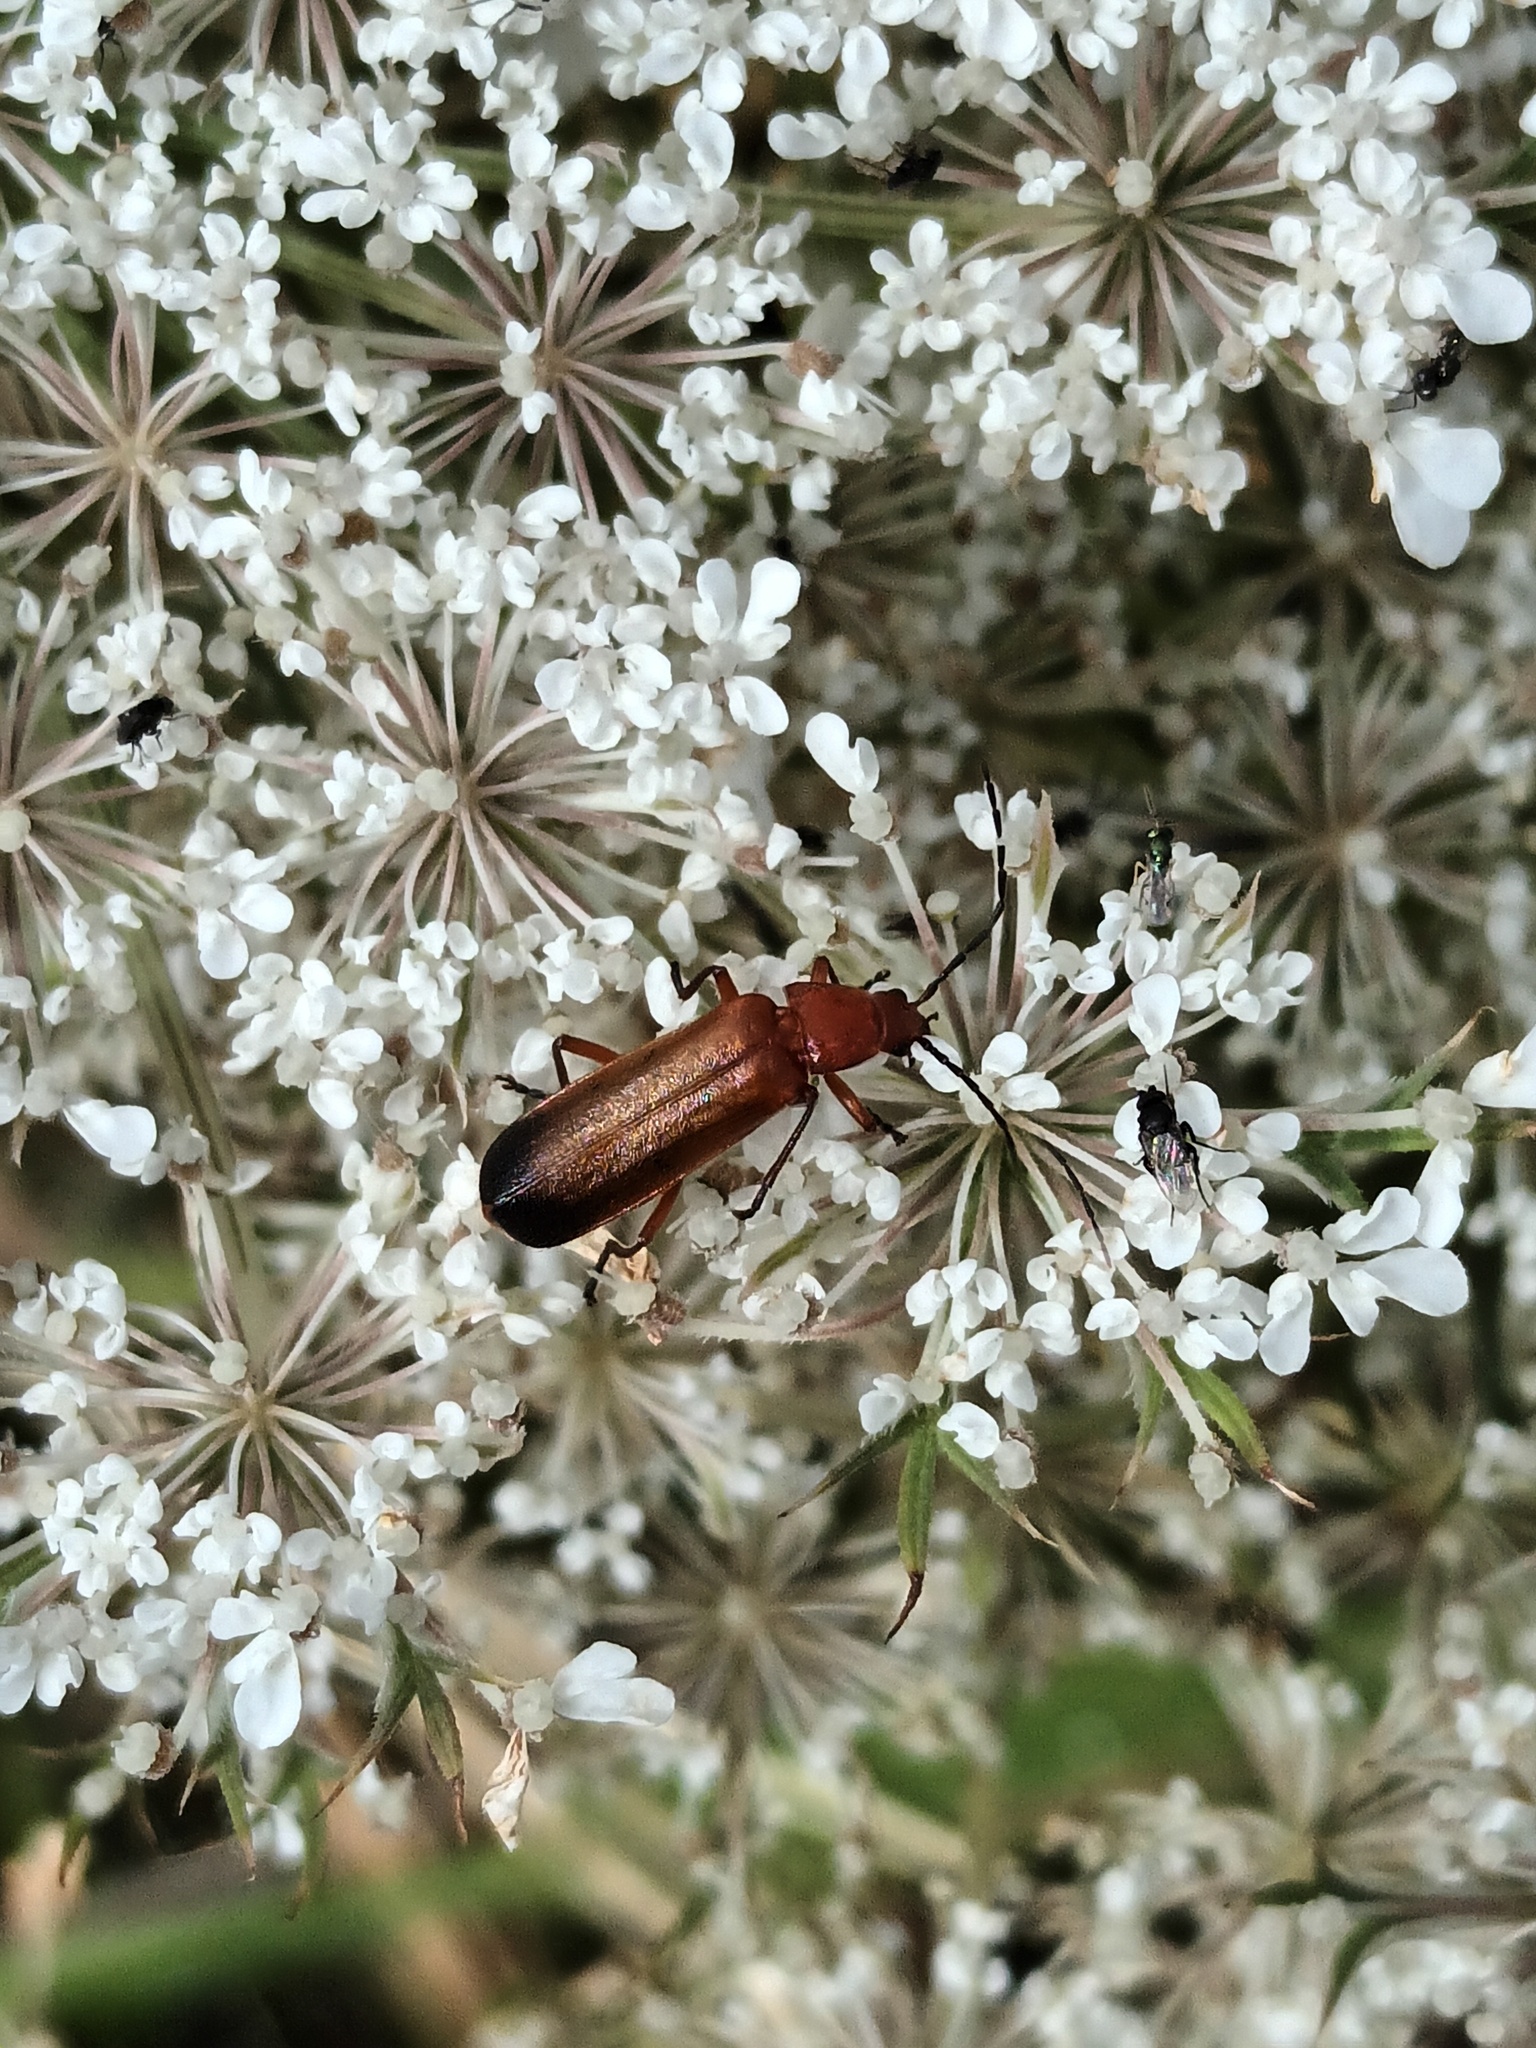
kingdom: Animalia
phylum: Arthropoda
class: Insecta
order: Coleoptera
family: Cantharidae
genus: Rhagonycha
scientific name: Rhagonycha fulva
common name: Common red soldier beetle
